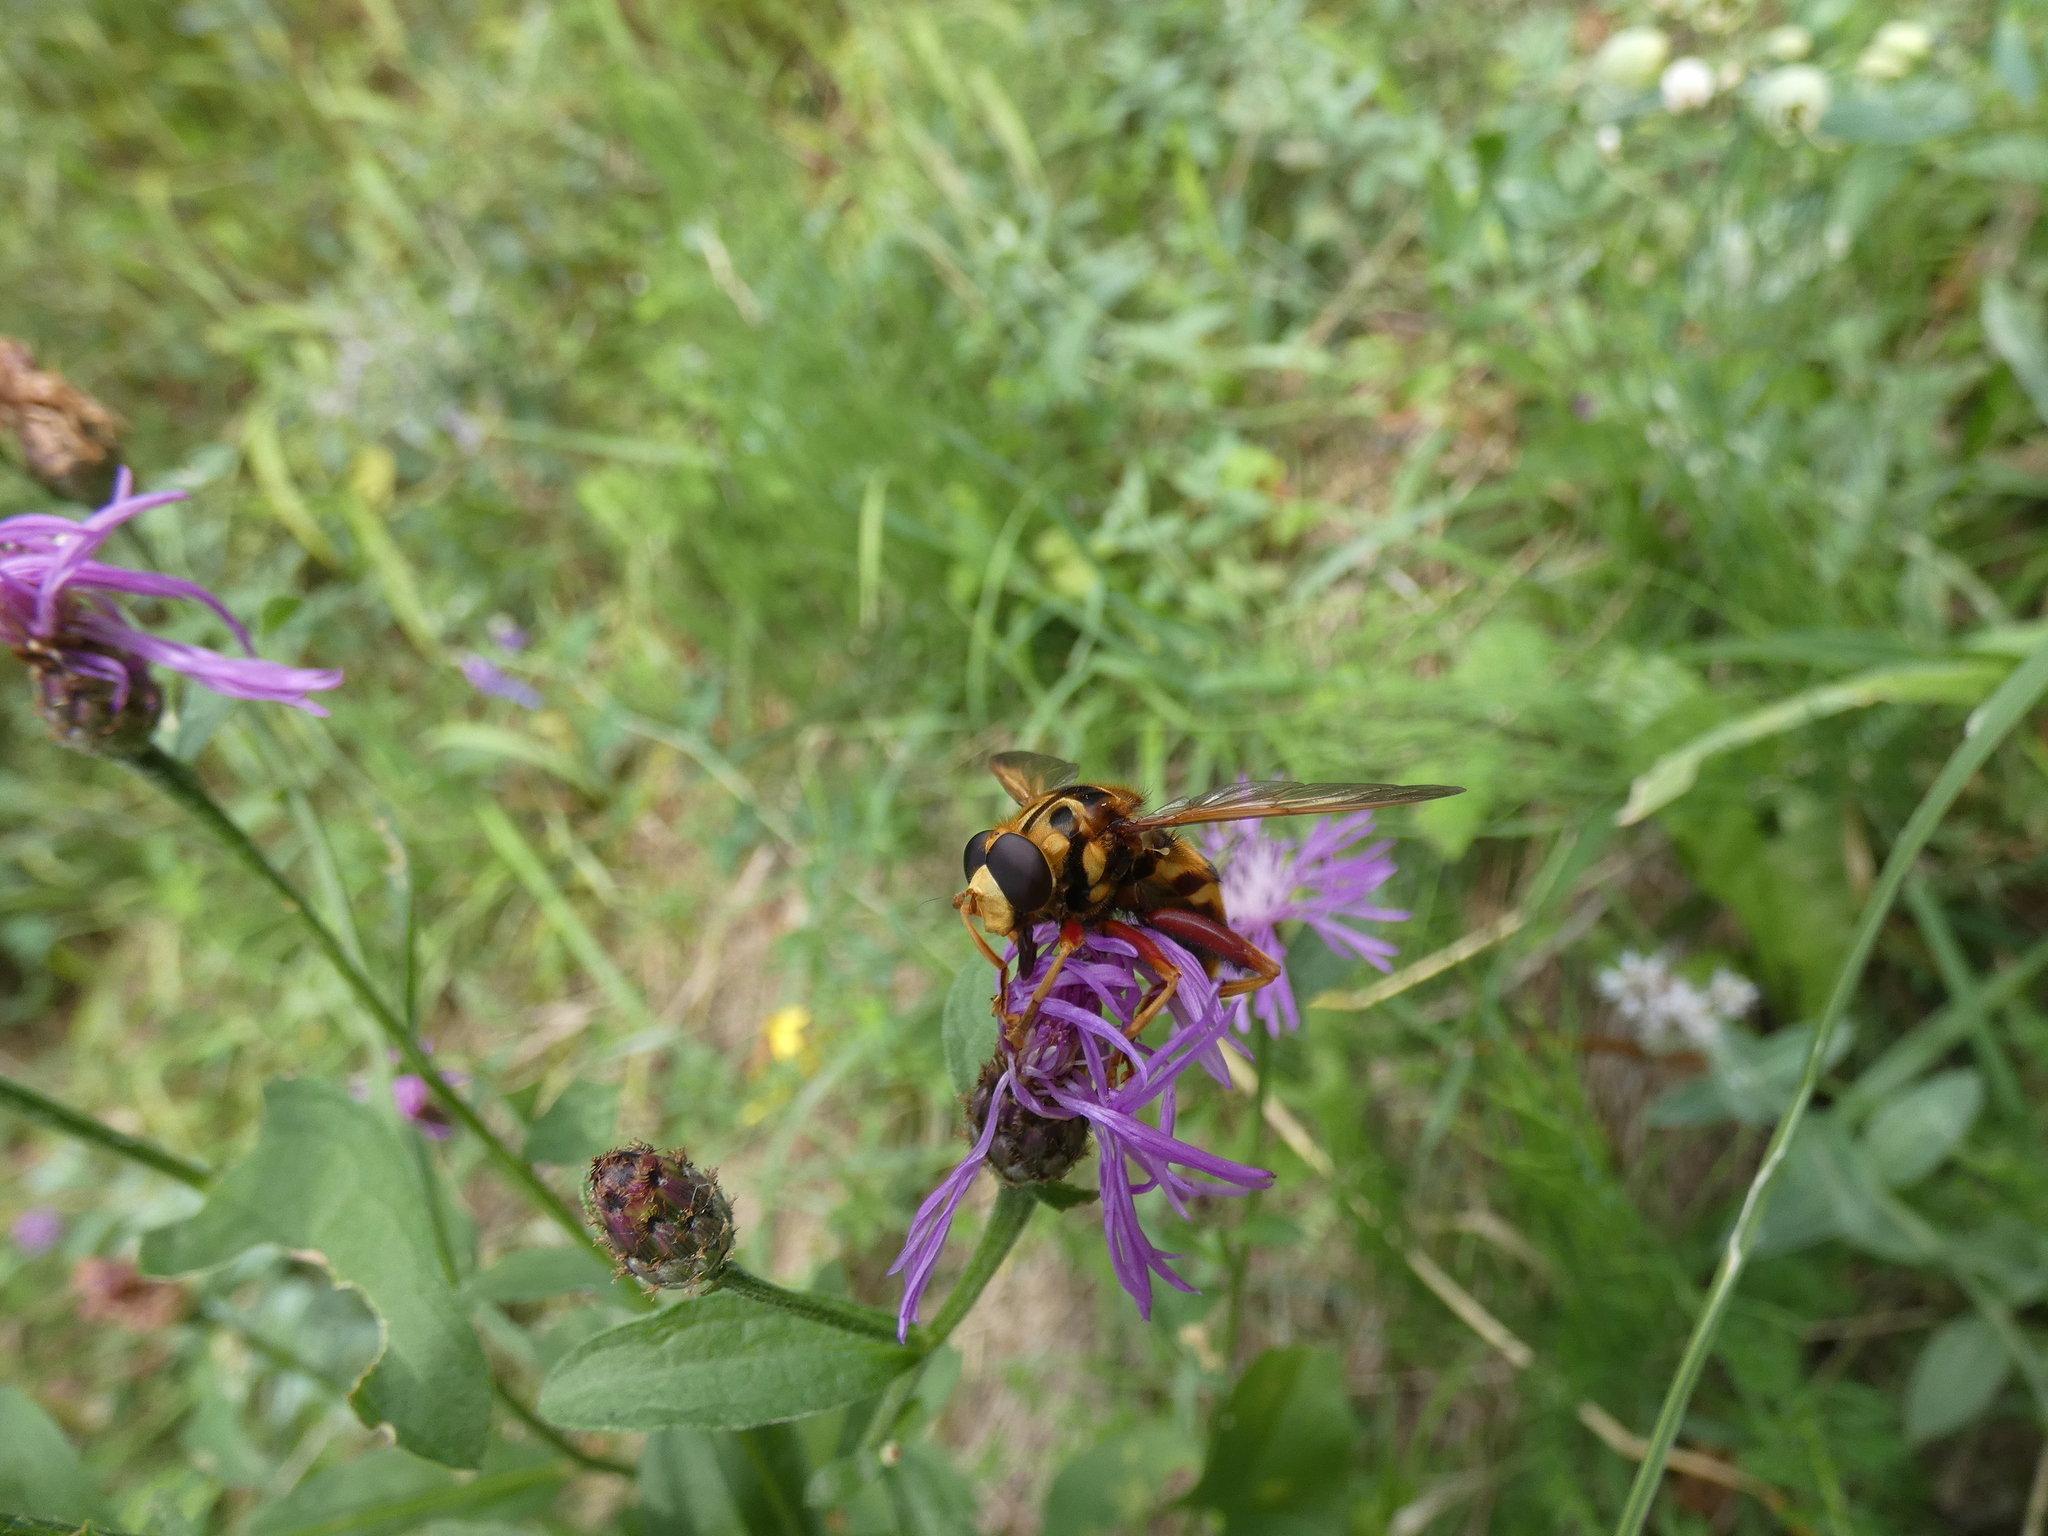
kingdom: Animalia
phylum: Arthropoda
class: Insecta
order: Diptera
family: Syrphidae
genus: Milesia
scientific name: Milesia crabroniformis
